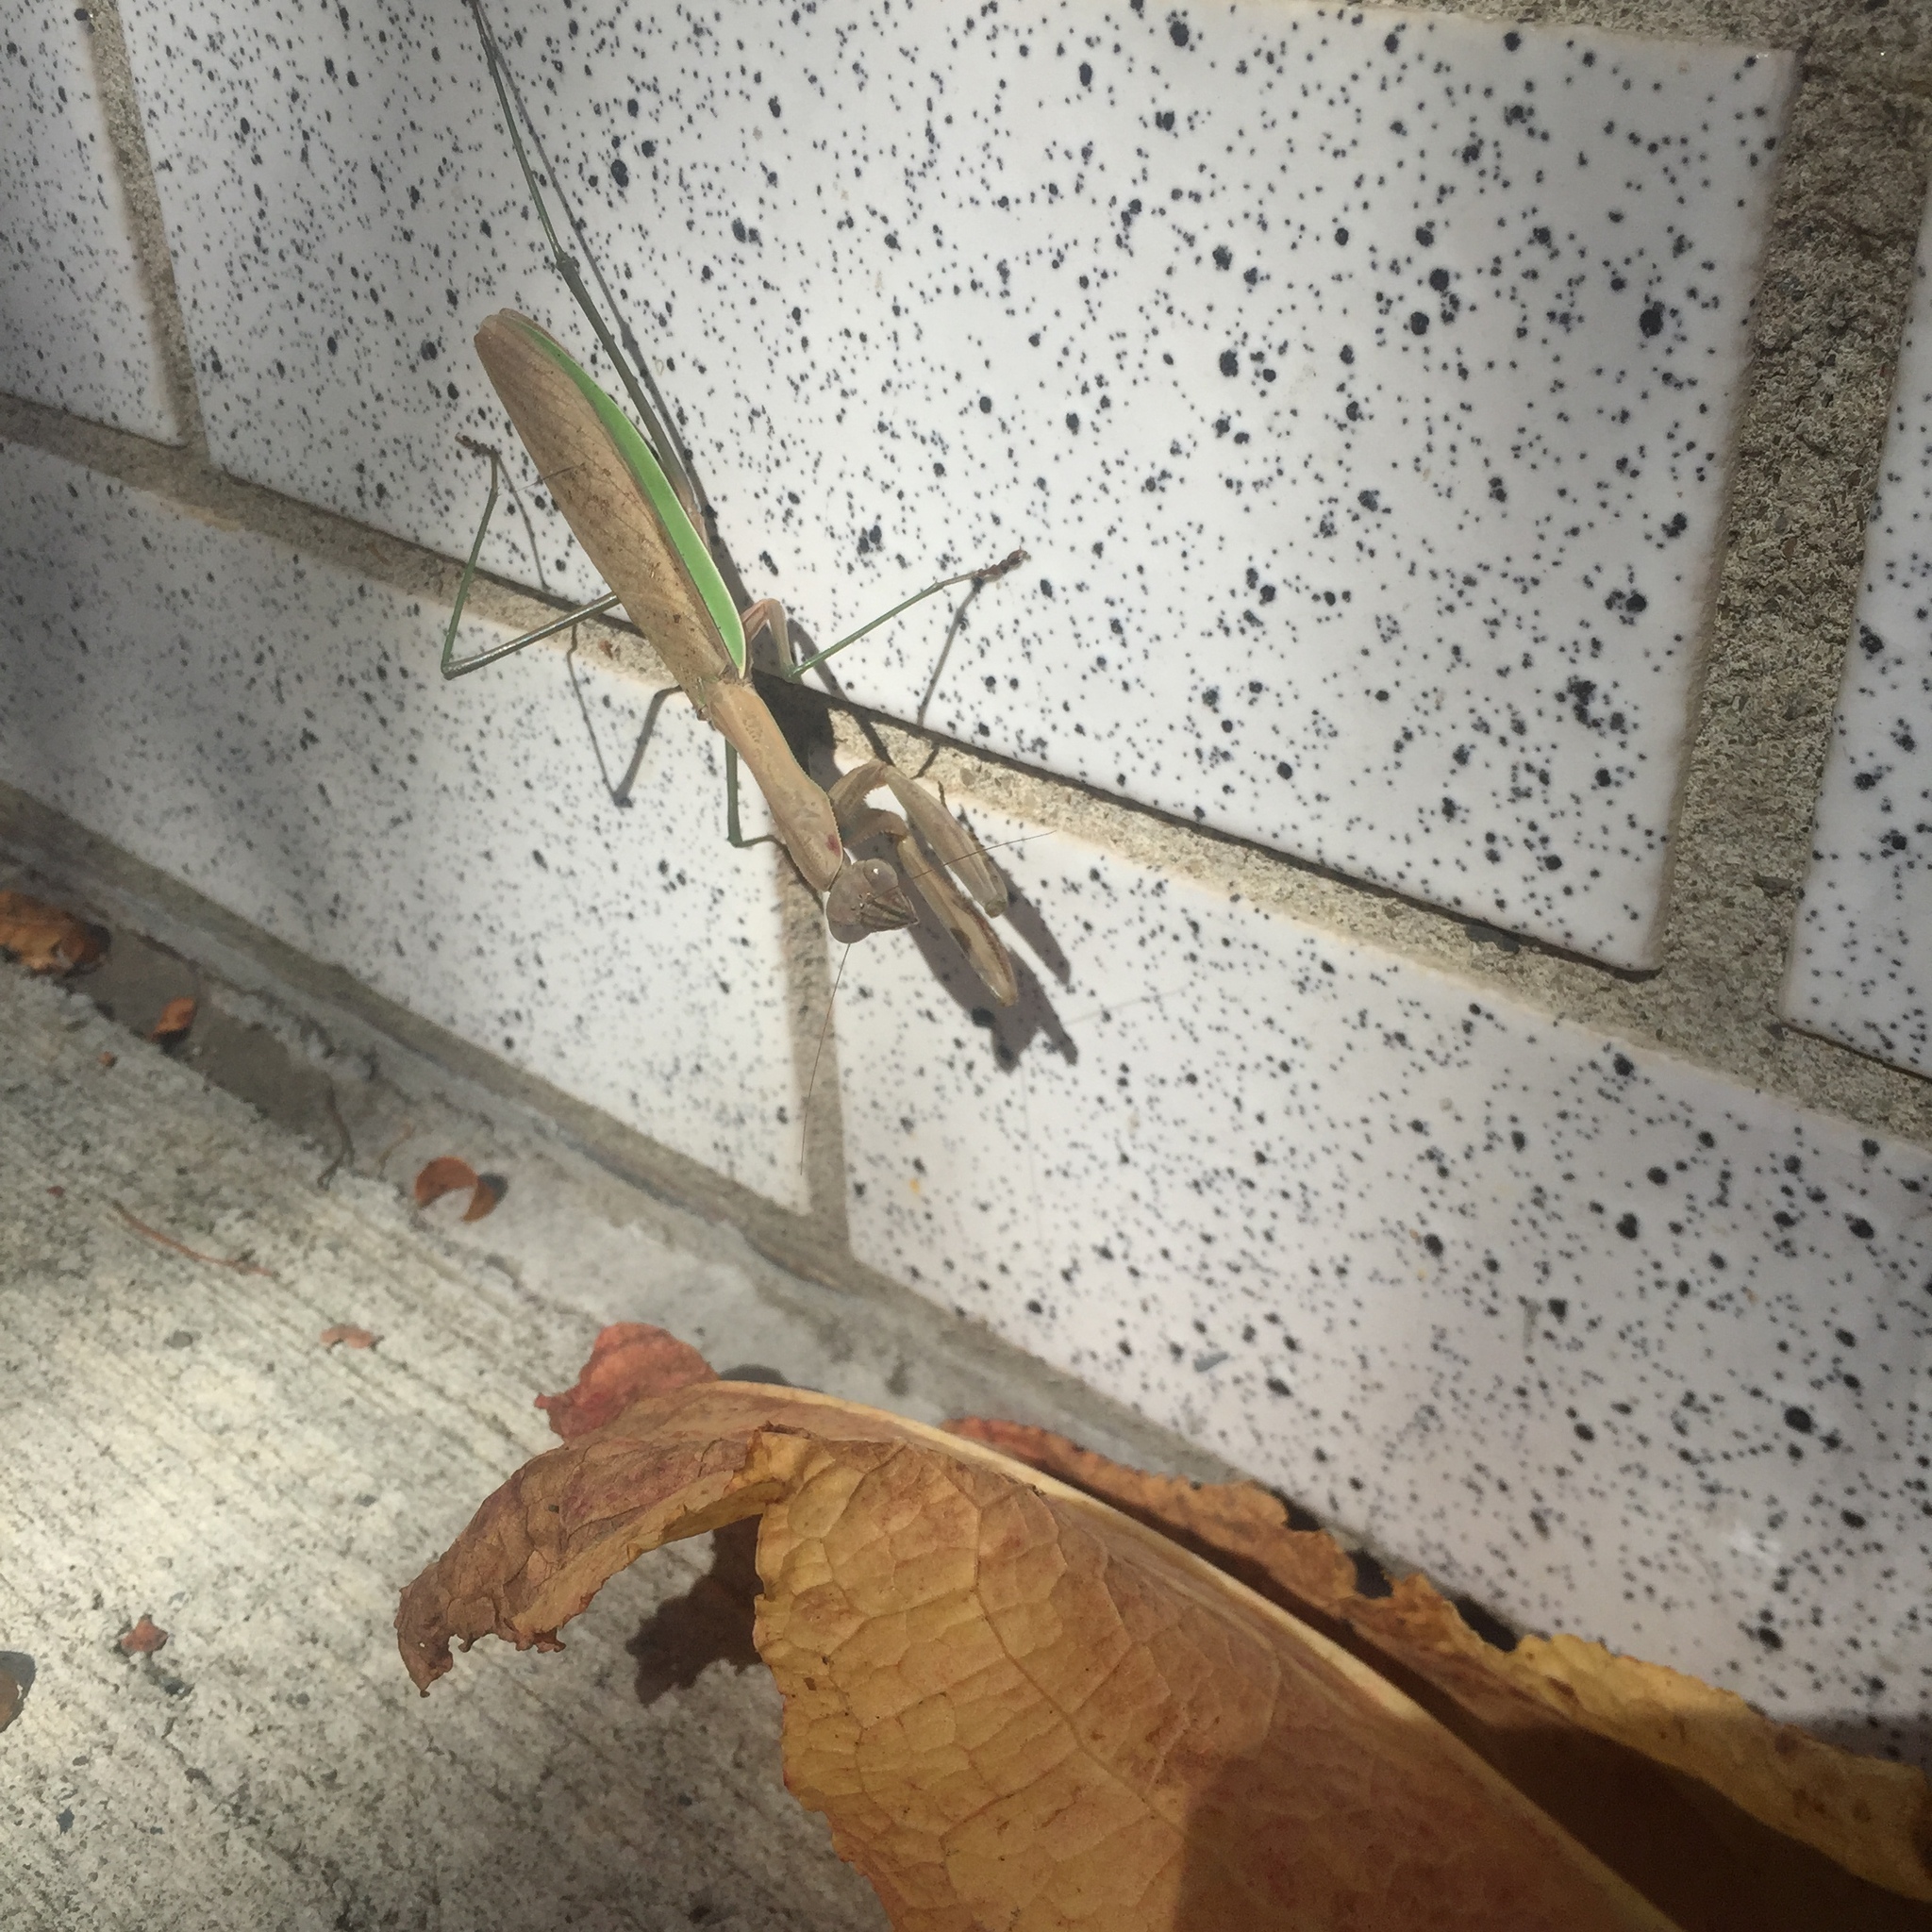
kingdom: Animalia
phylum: Arthropoda
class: Insecta
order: Mantodea
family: Mantidae
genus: Tenodera
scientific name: Tenodera sinensis
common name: Chinese mantis
